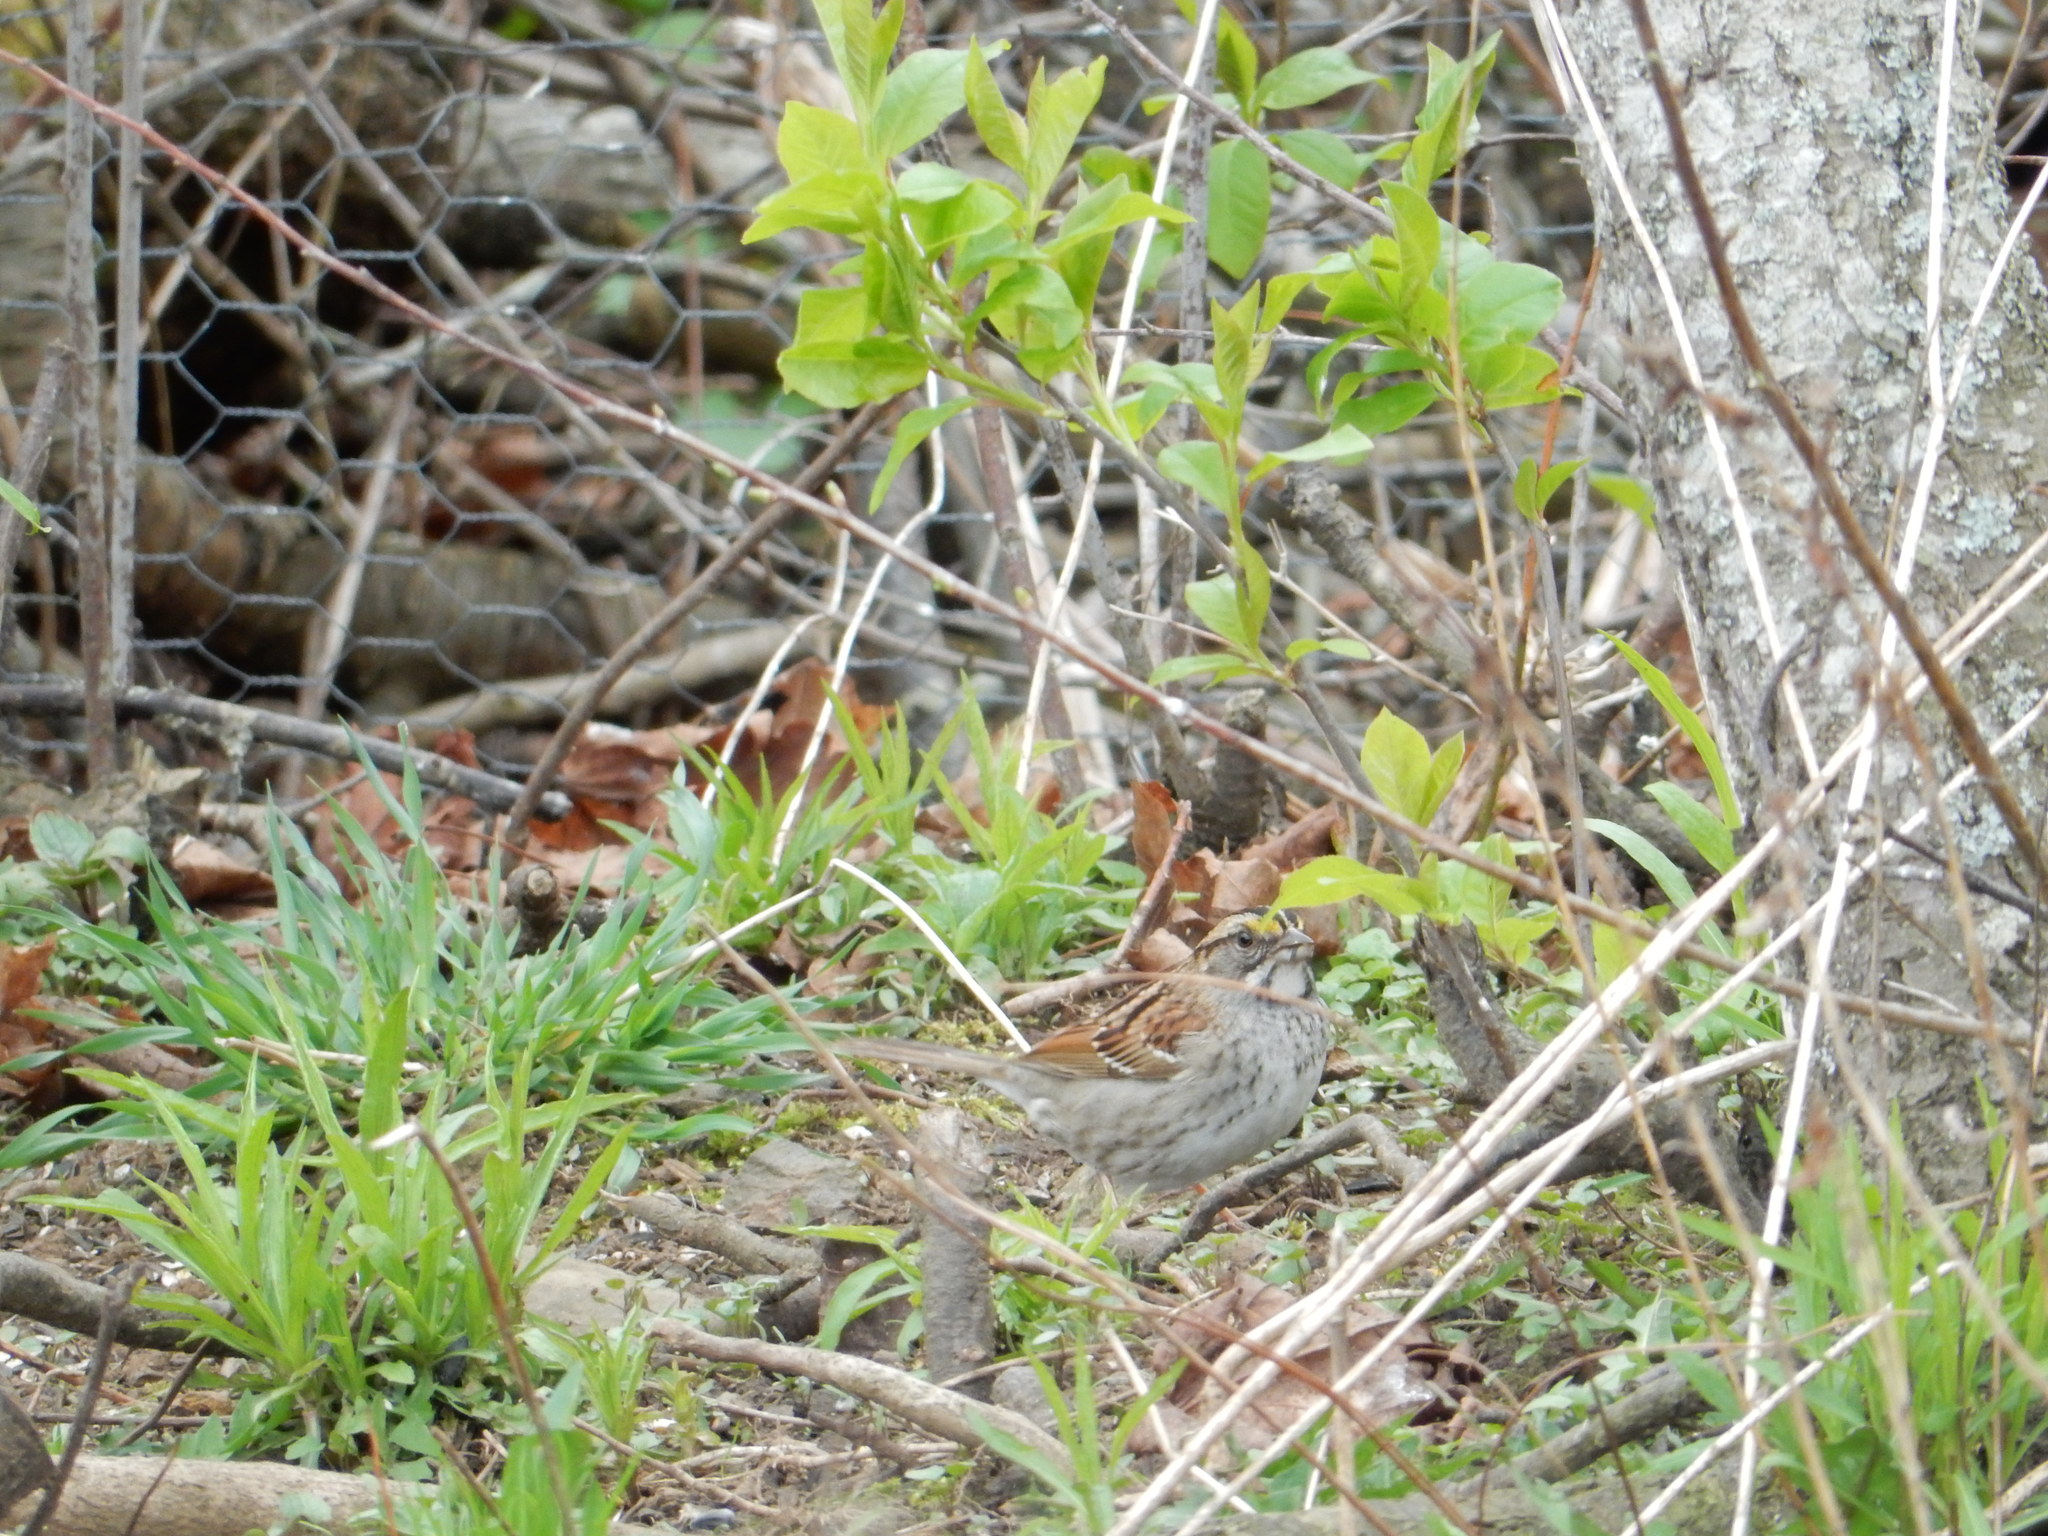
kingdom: Animalia
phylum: Chordata
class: Aves
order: Passeriformes
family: Passerellidae
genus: Zonotrichia
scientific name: Zonotrichia albicollis
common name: White-throated sparrow
